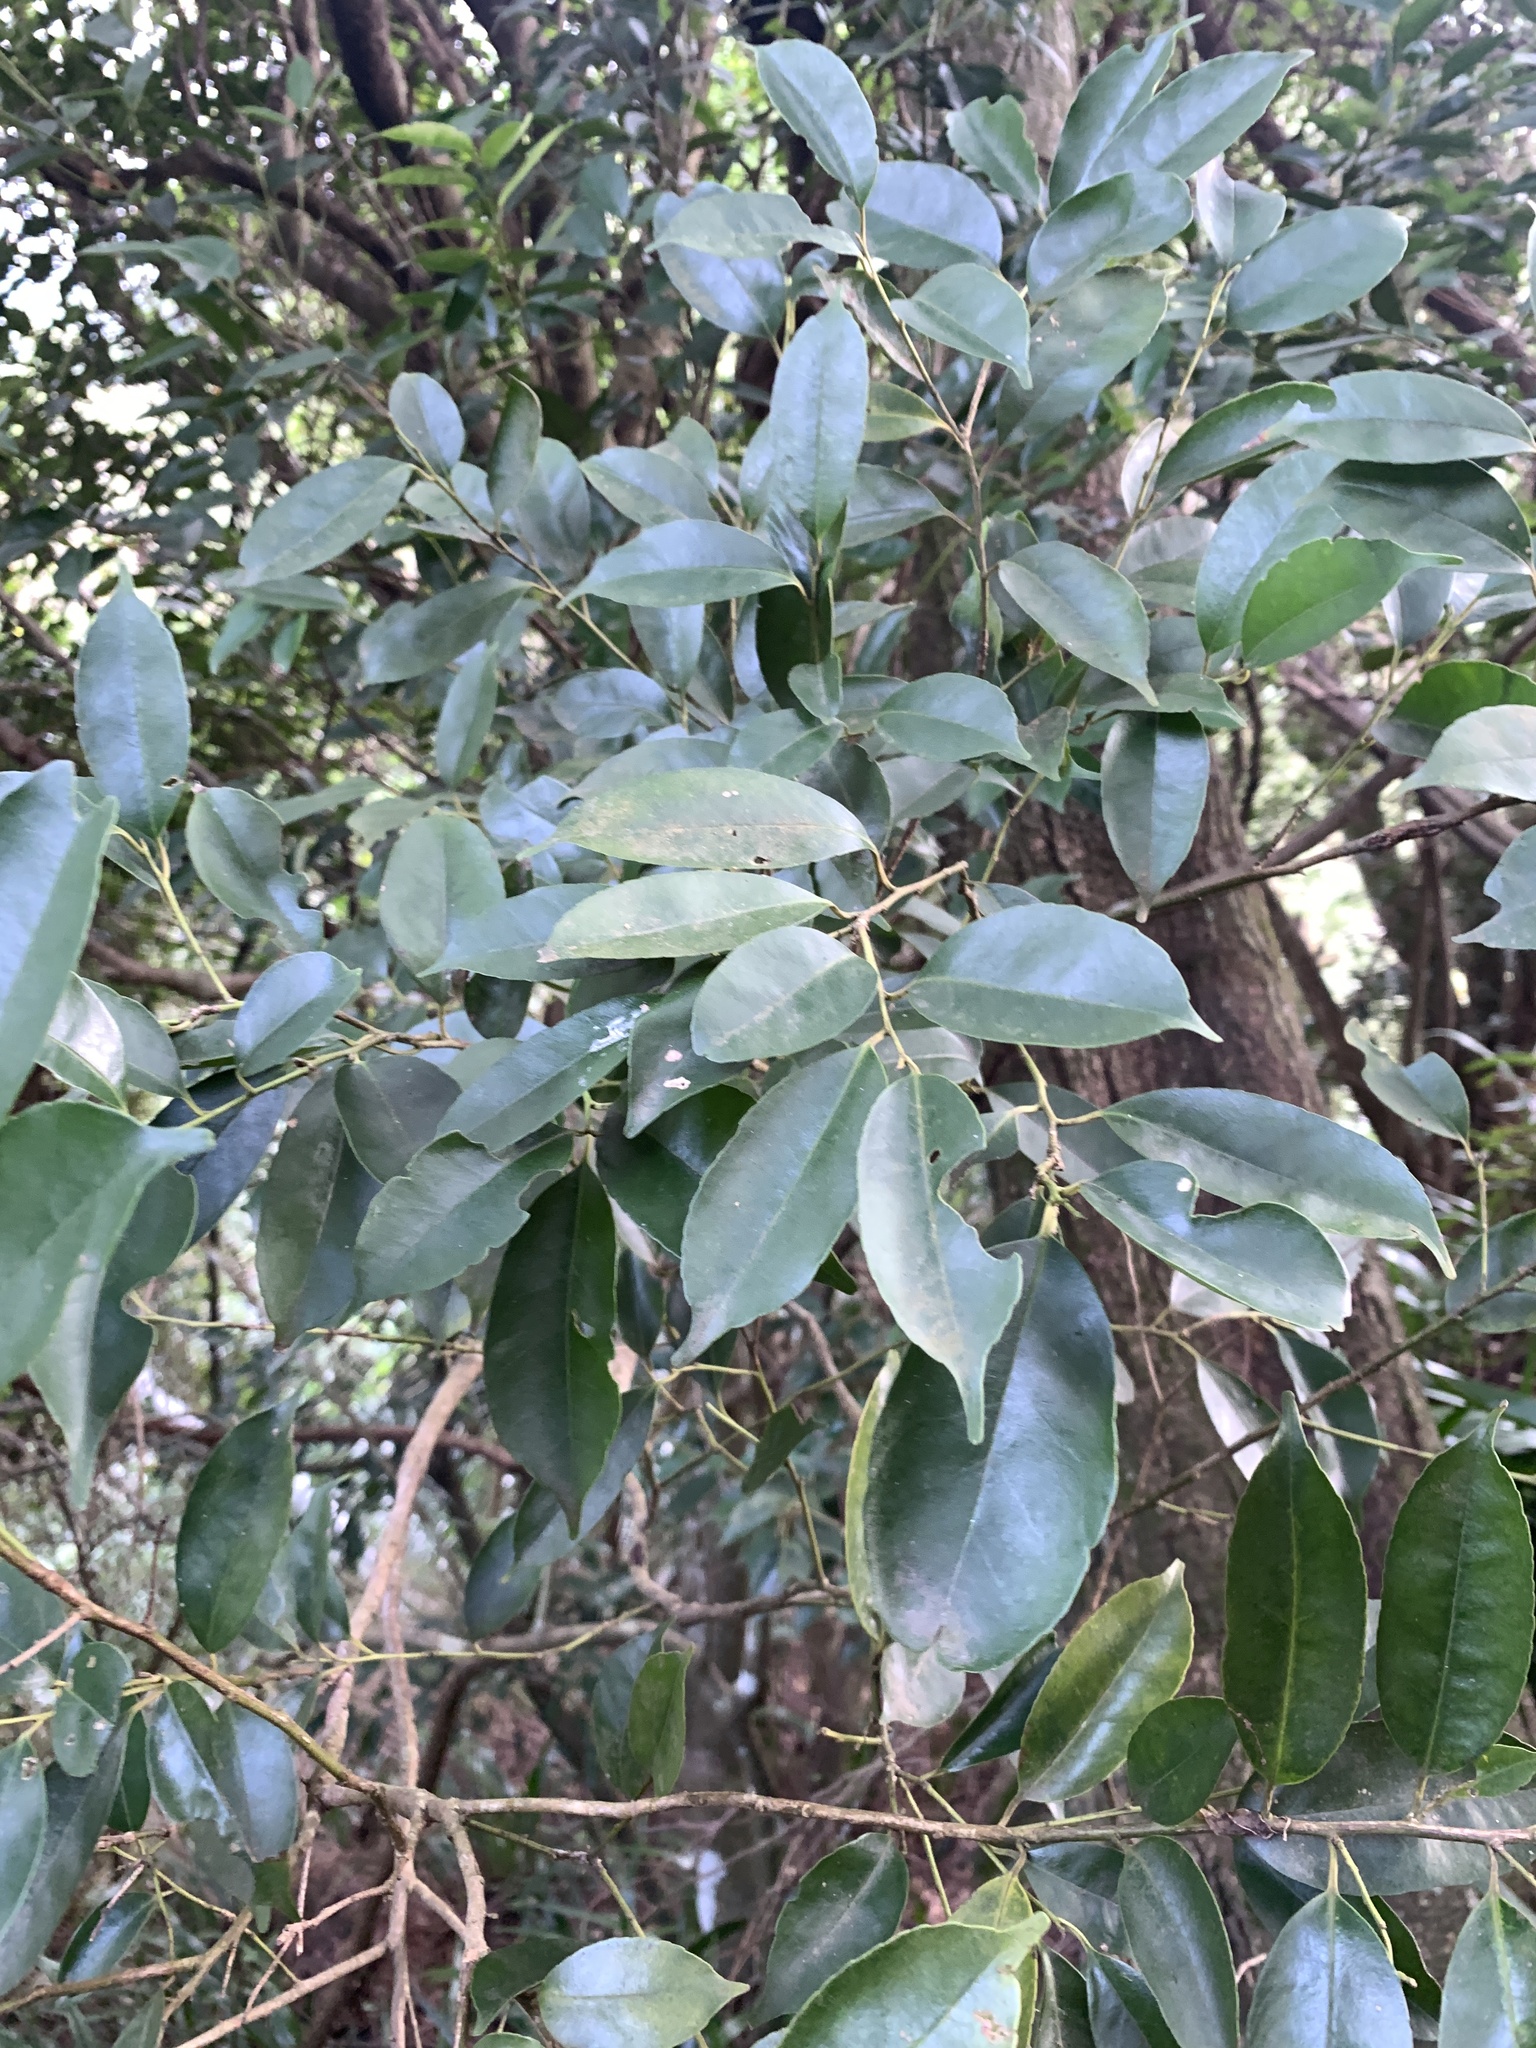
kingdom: Plantae
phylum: Tracheophyta
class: Magnoliopsida
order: Aquifoliales
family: Aquifoliaceae
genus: Ilex
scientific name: Ilex ficoidea
